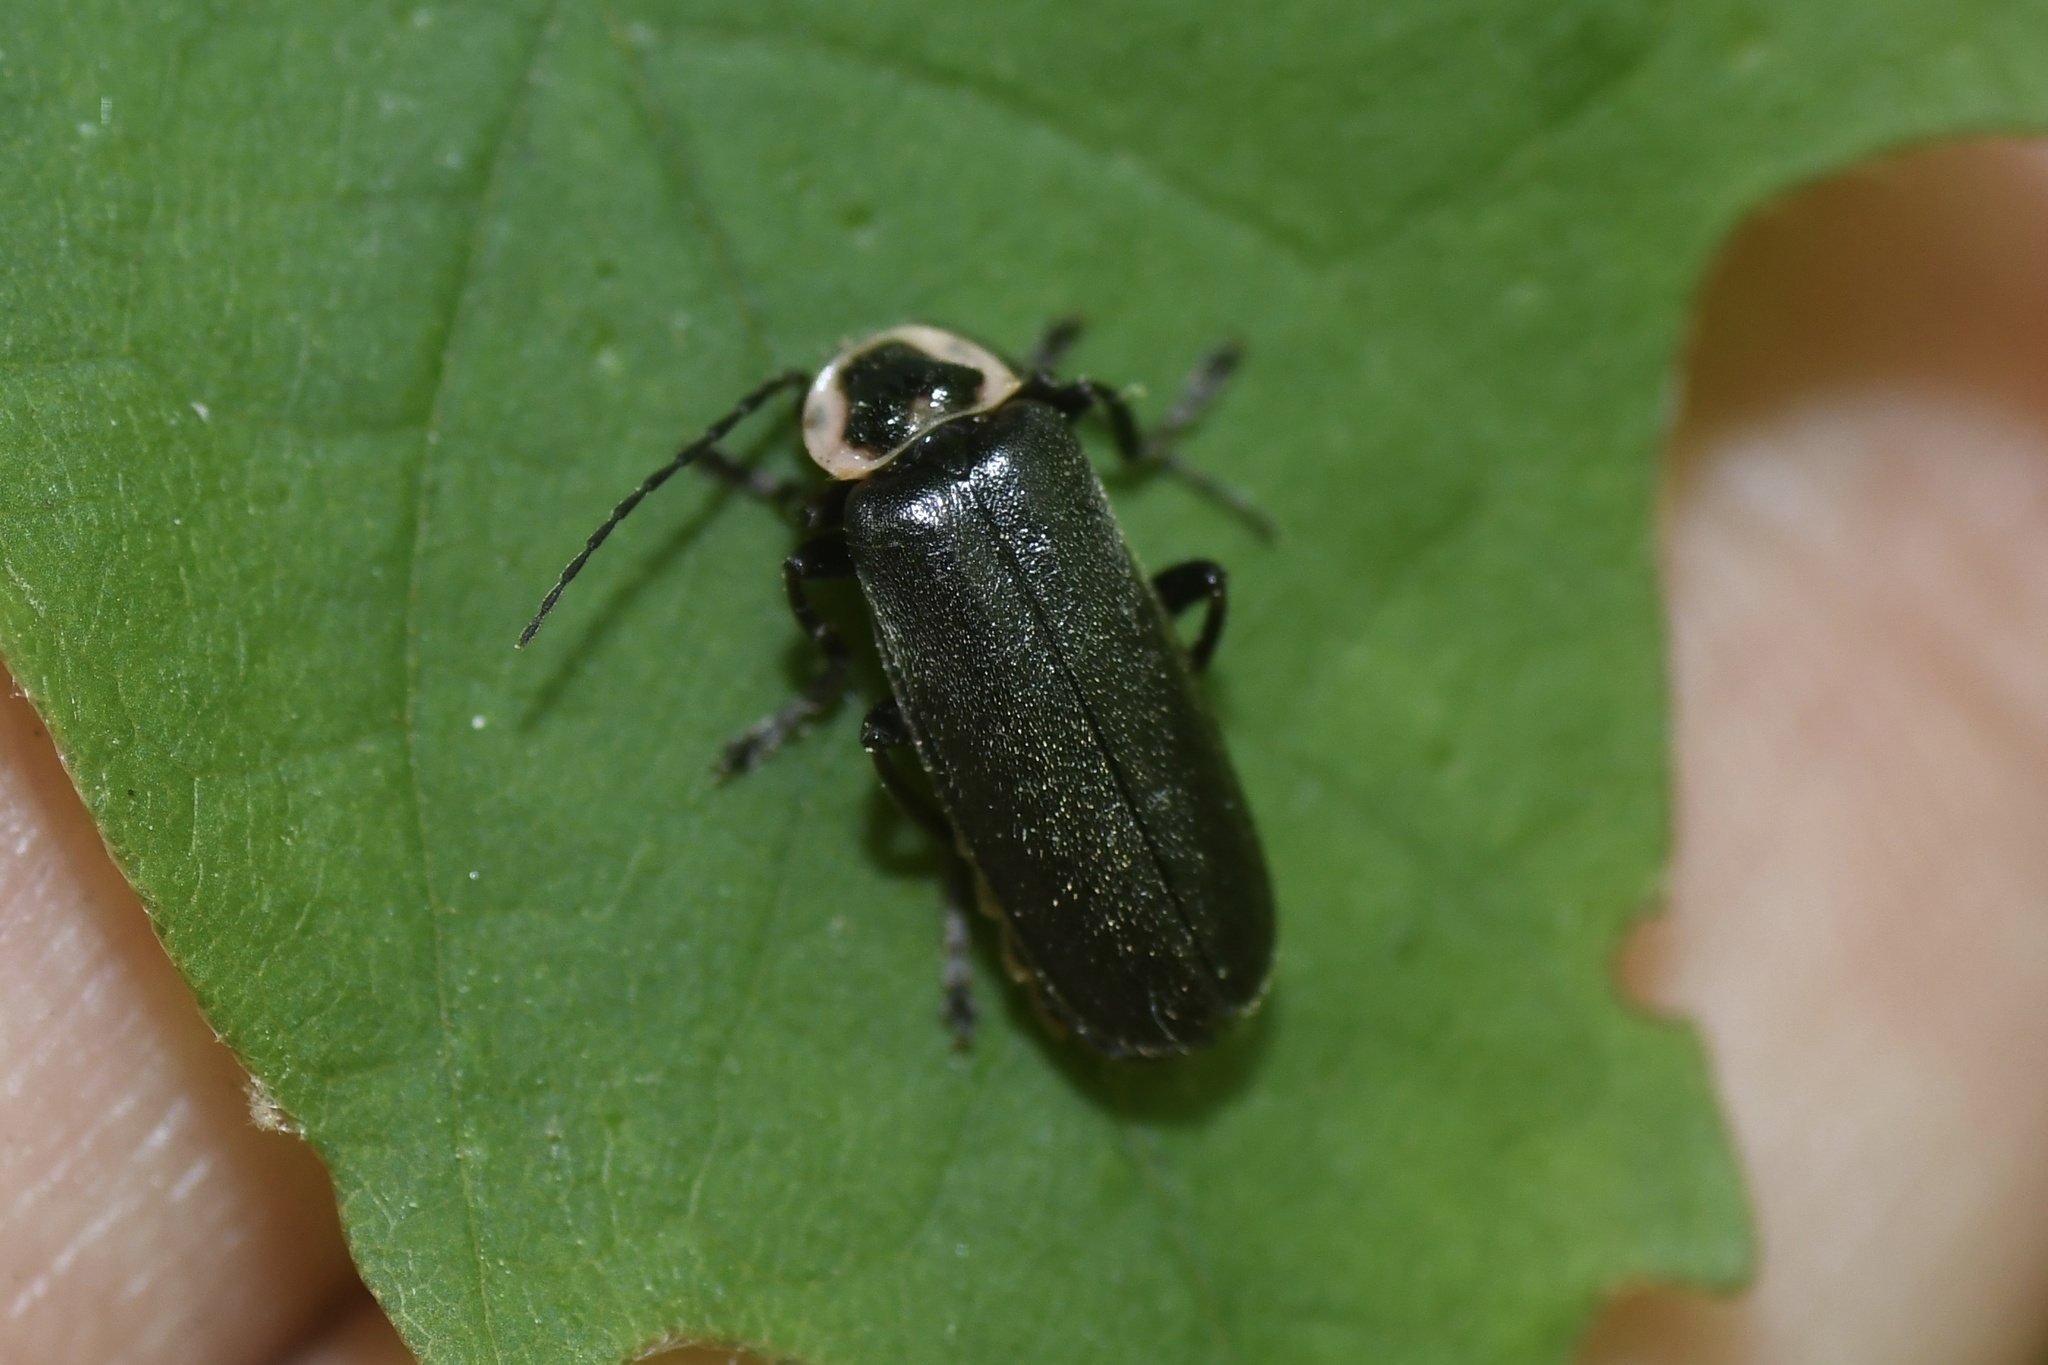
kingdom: Animalia
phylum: Arthropoda
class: Insecta
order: Coleoptera
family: Cantharidae
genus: Atalantycha
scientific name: Atalantycha neglecta
